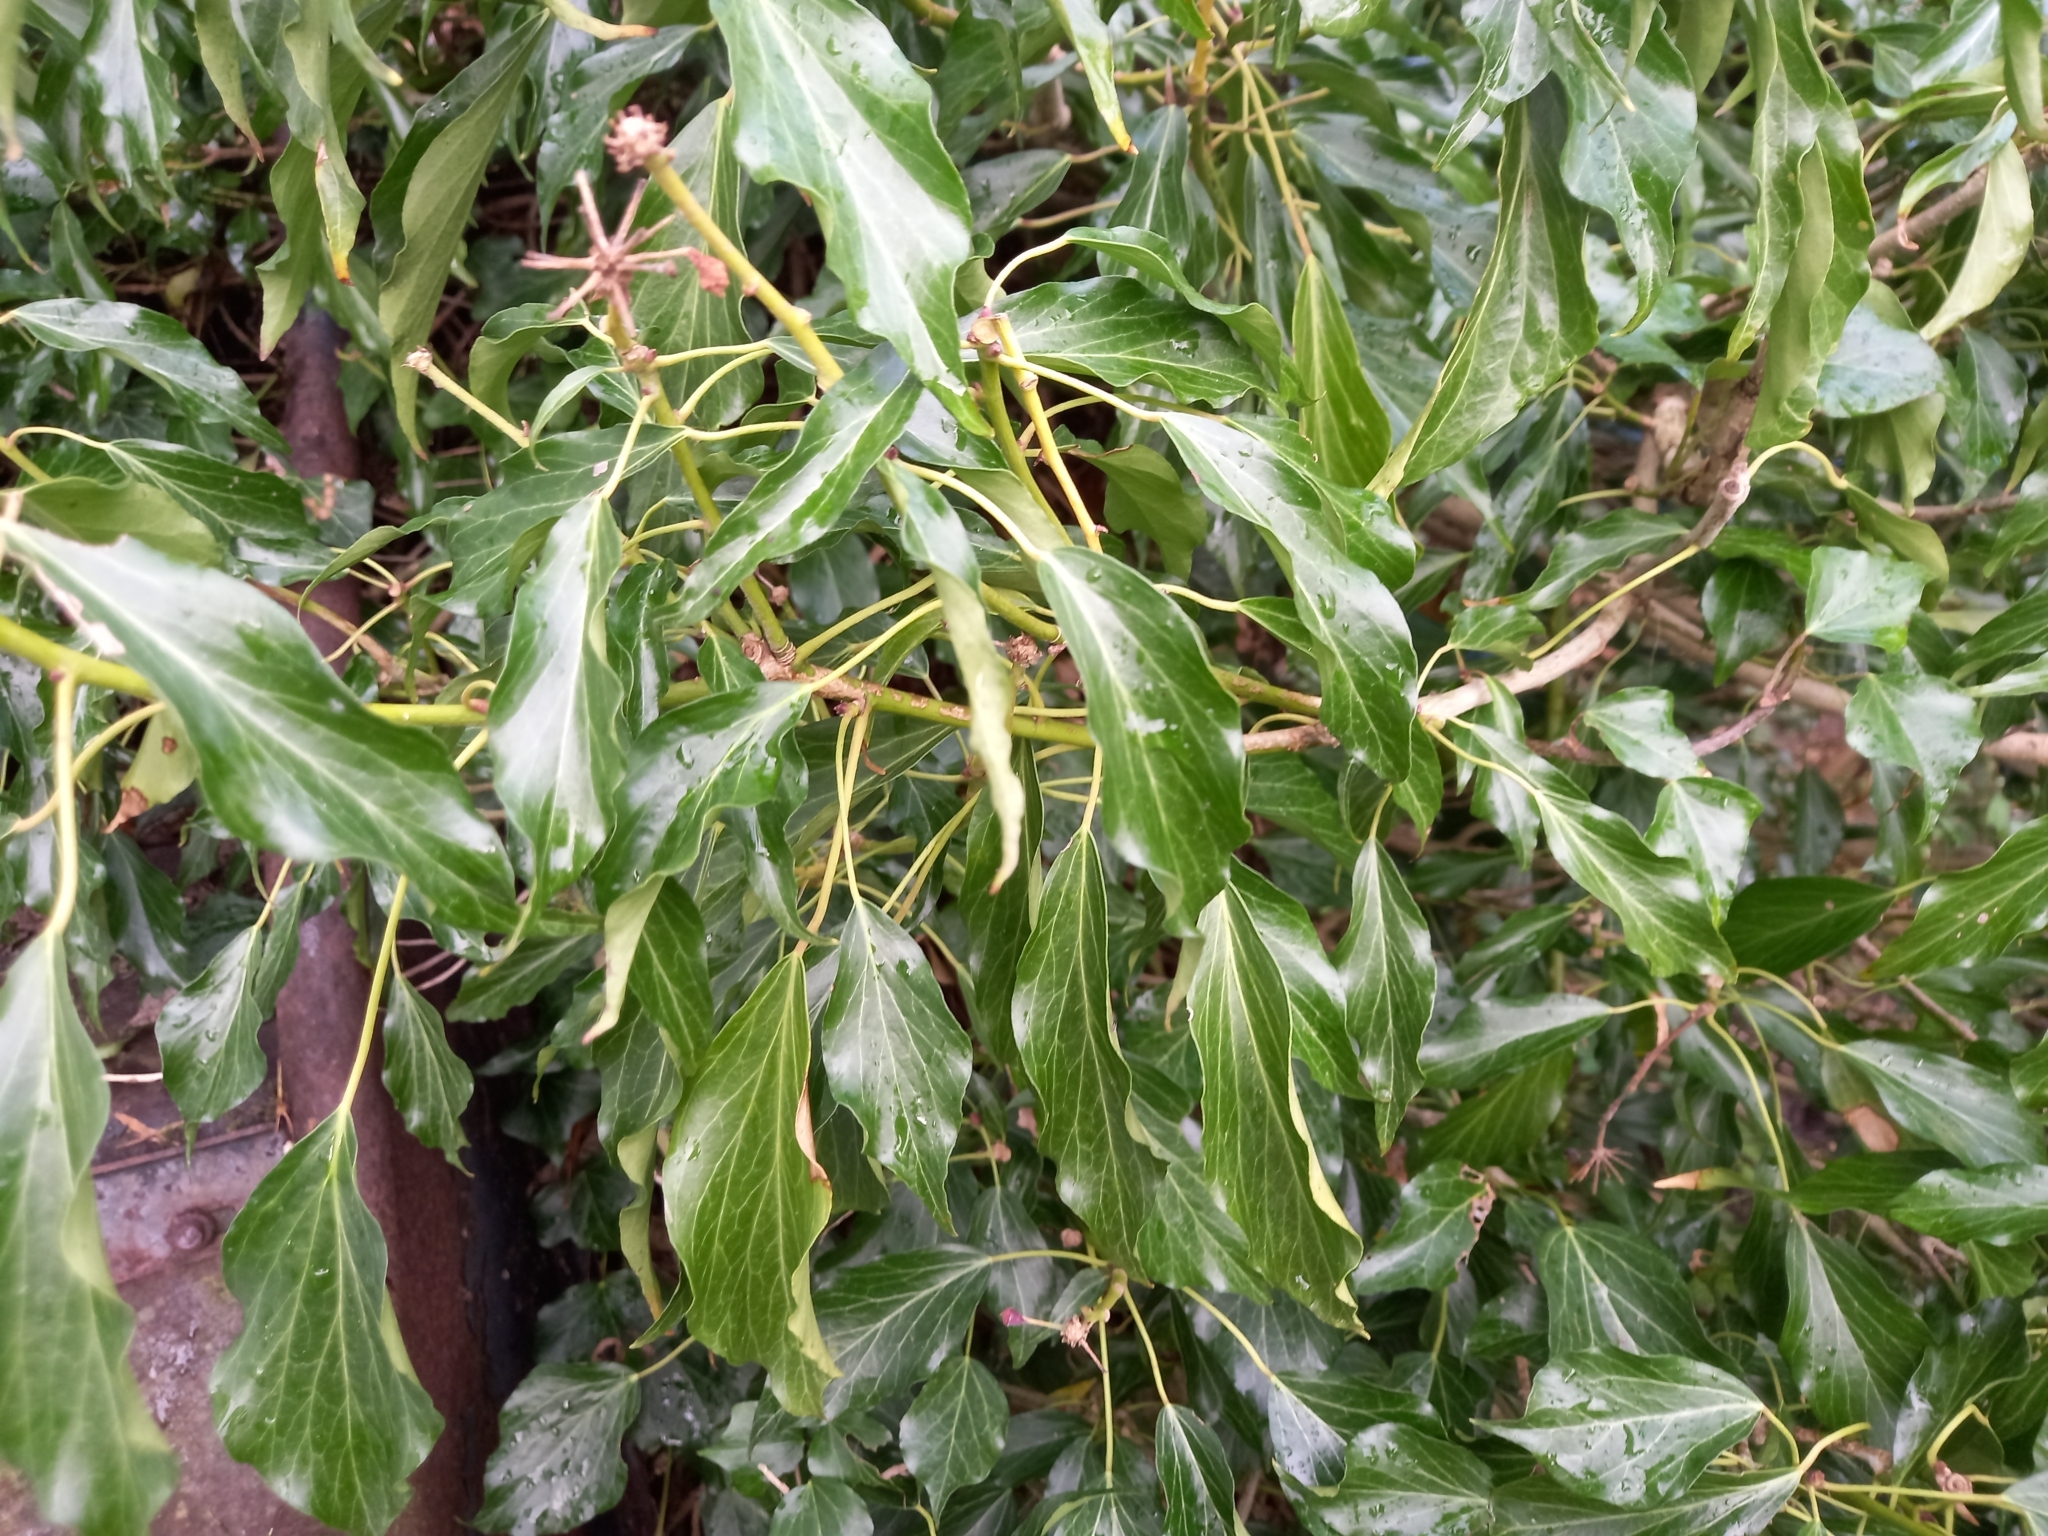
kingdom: Plantae
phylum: Tracheophyta
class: Magnoliopsida
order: Apiales
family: Araliaceae
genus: Hedera
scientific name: Hedera helix
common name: Ivy
